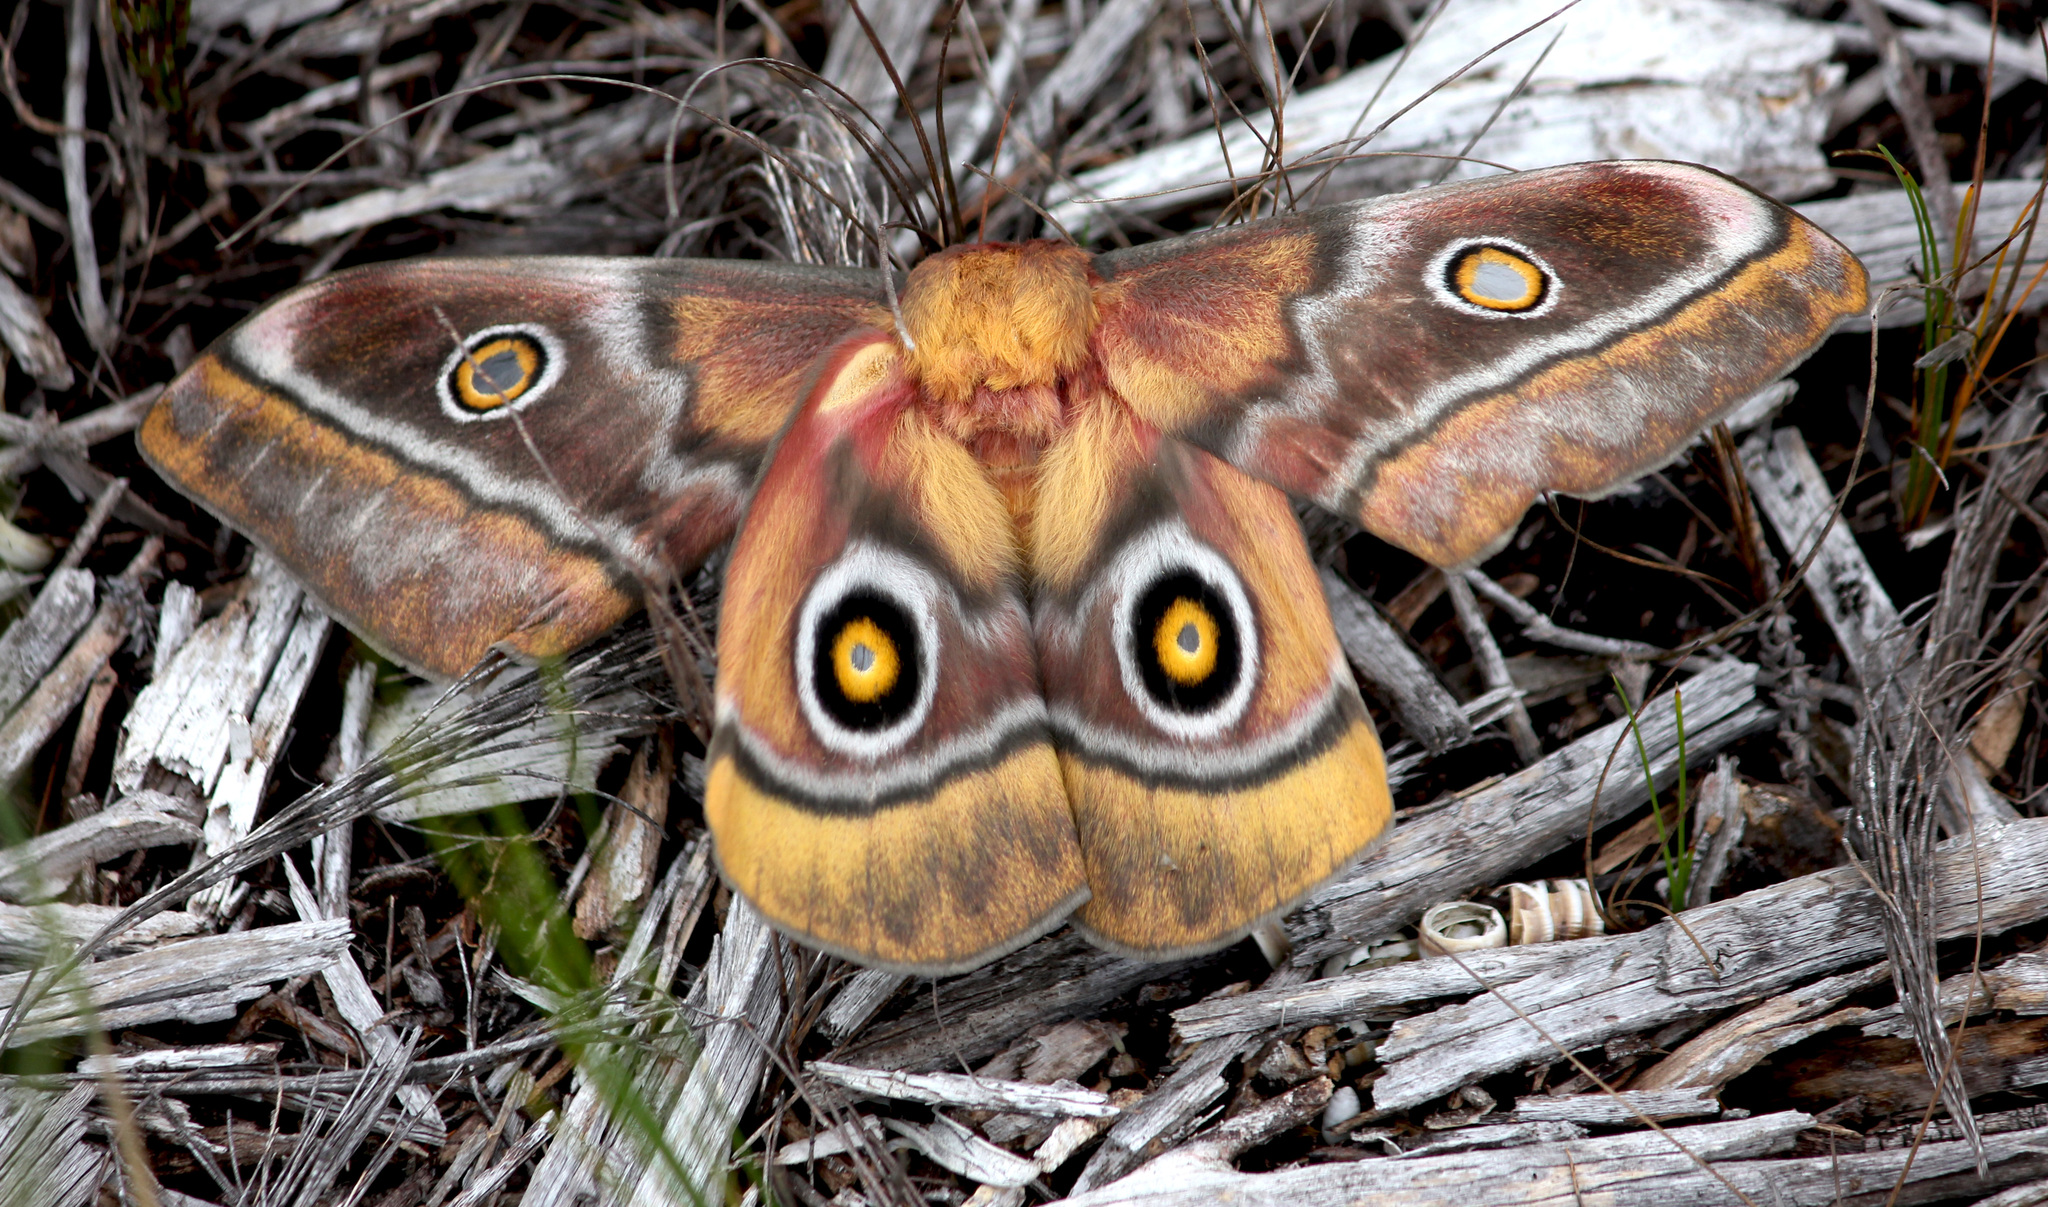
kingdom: Animalia
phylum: Arthropoda
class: Insecta
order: Lepidoptera
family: Saturniidae
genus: Nudaurelia
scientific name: Nudaurelia cytherea
